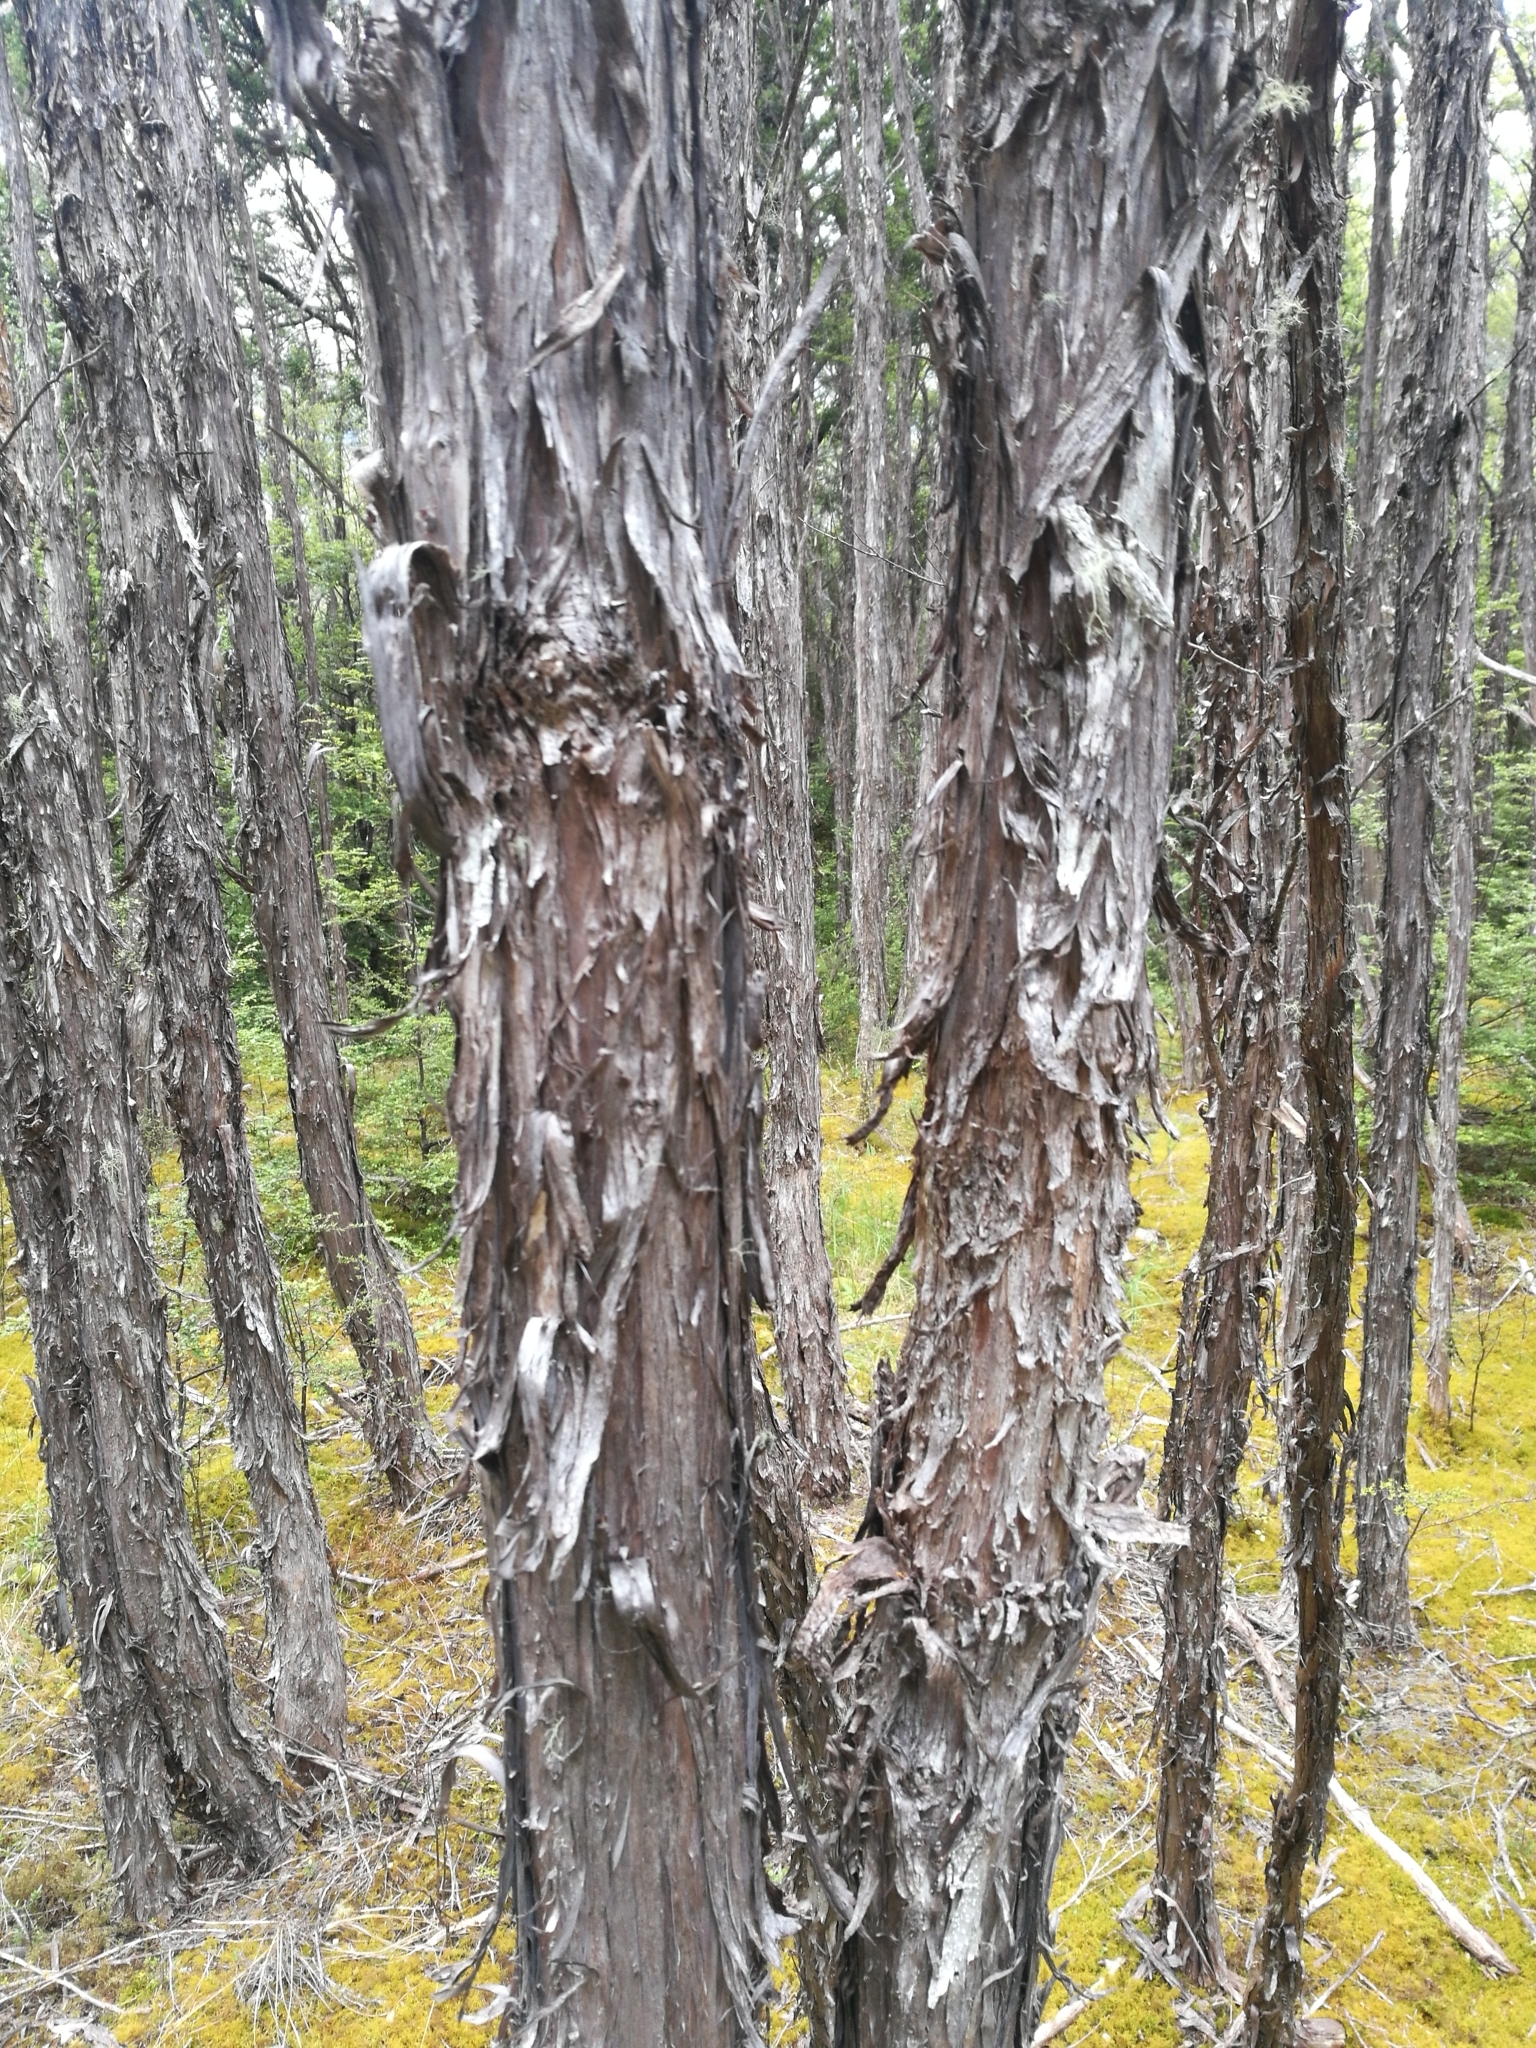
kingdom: Plantae
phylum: Tracheophyta
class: Magnoliopsida
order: Myrtales
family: Myrtaceae
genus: Leptospermum
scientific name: Leptospermum scoparium
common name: Broom tea-tree
